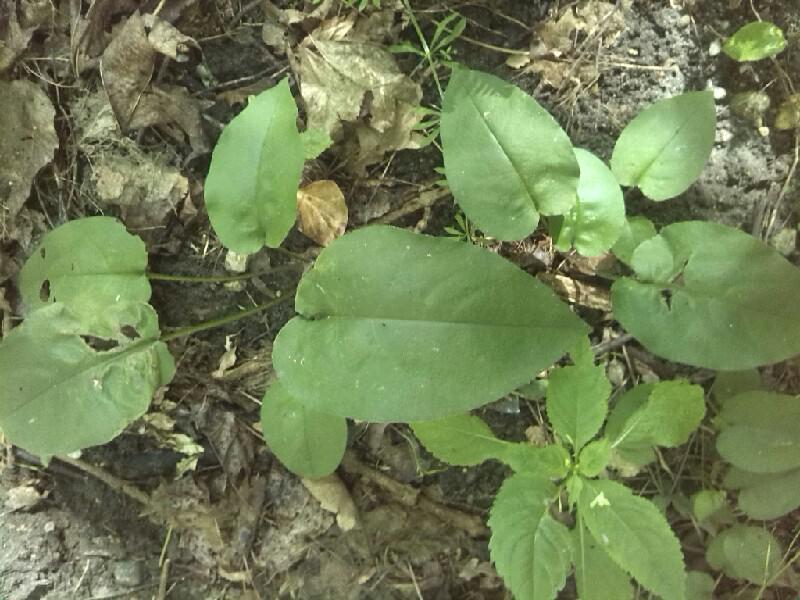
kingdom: Plantae
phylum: Tracheophyta
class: Magnoliopsida
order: Boraginales
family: Boraginaceae
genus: Pulmonaria
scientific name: Pulmonaria obscura
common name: Suffolk lungwort
